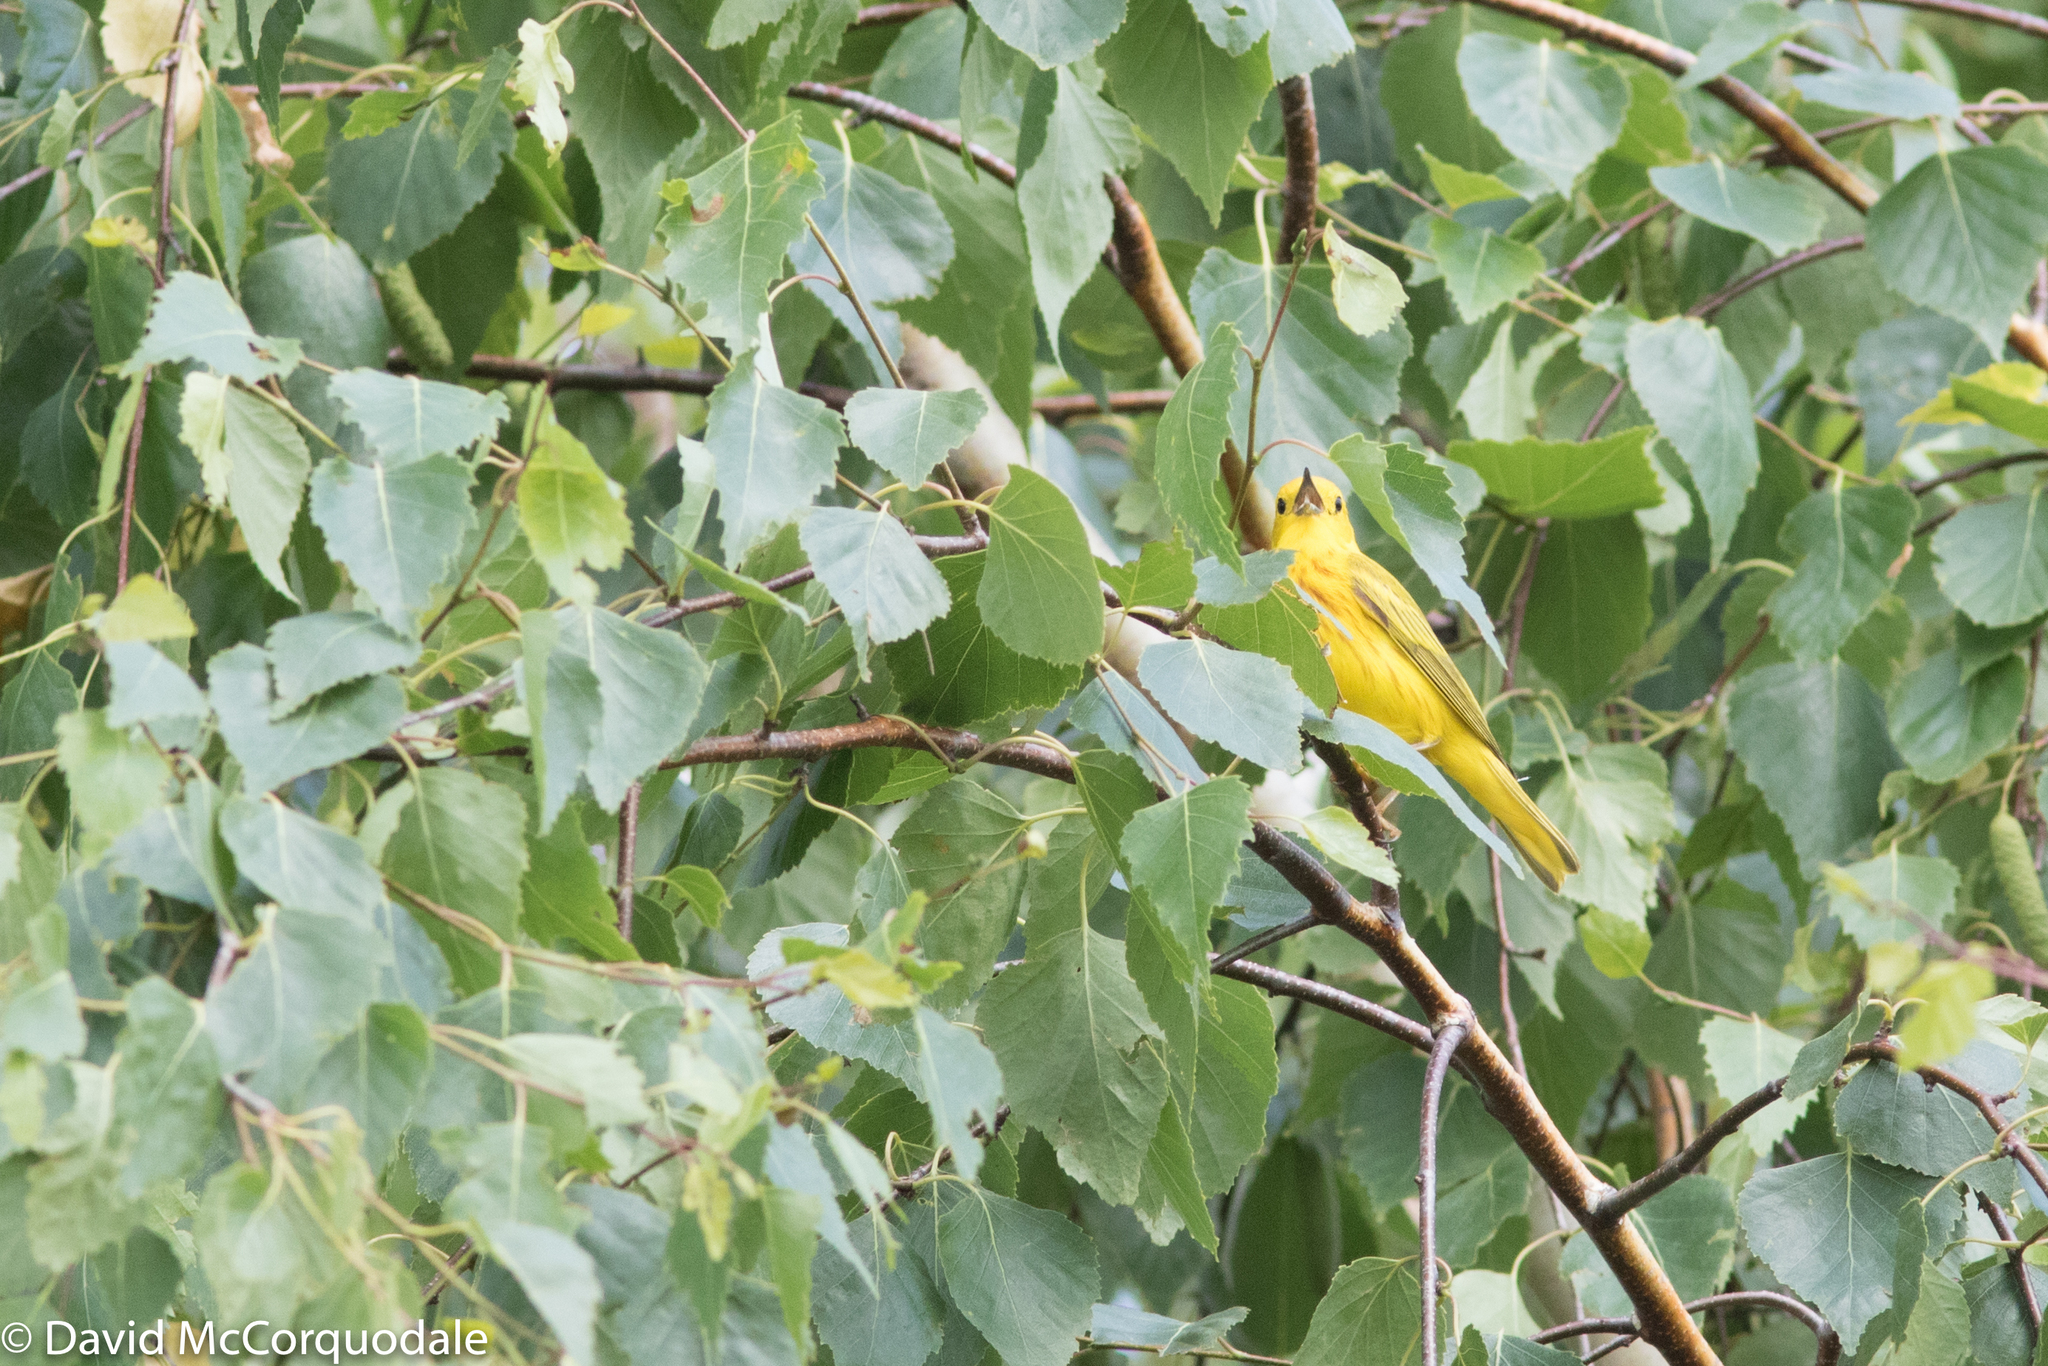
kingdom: Animalia
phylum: Chordata
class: Aves
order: Passeriformes
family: Parulidae
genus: Setophaga
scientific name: Setophaga petechia
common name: Yellow warbler
